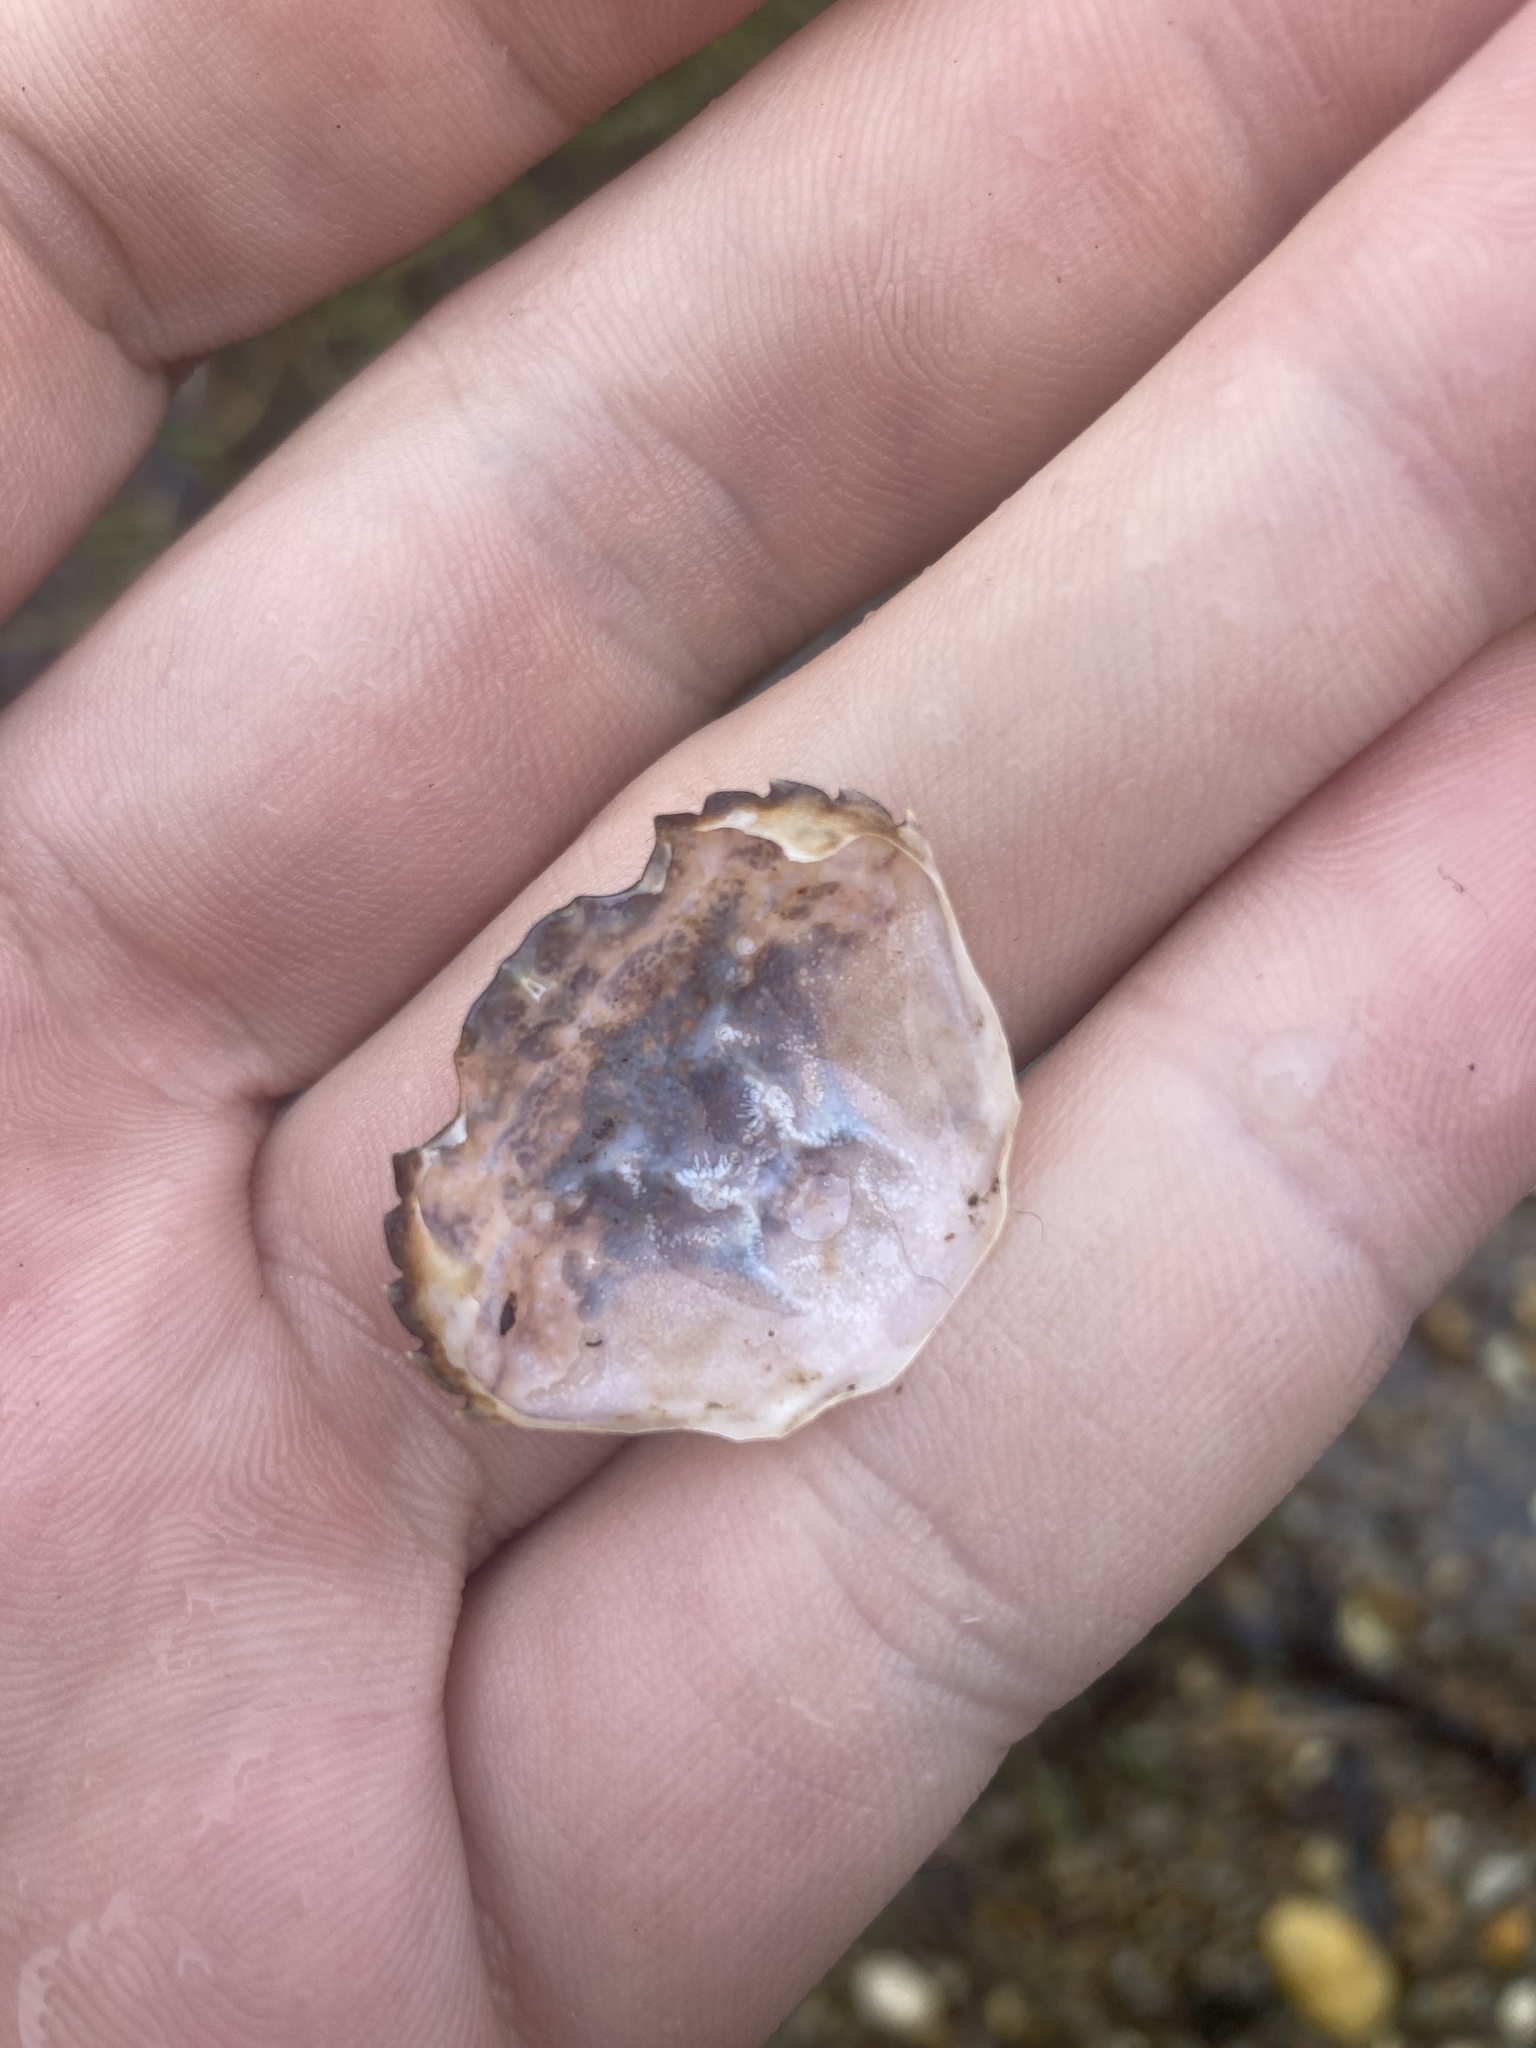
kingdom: Animalia
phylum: Arthropoda
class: Malacostraca
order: Decapoda
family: Carcinidae
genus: Carcinus
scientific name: Carcinus maenas
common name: European green crab
